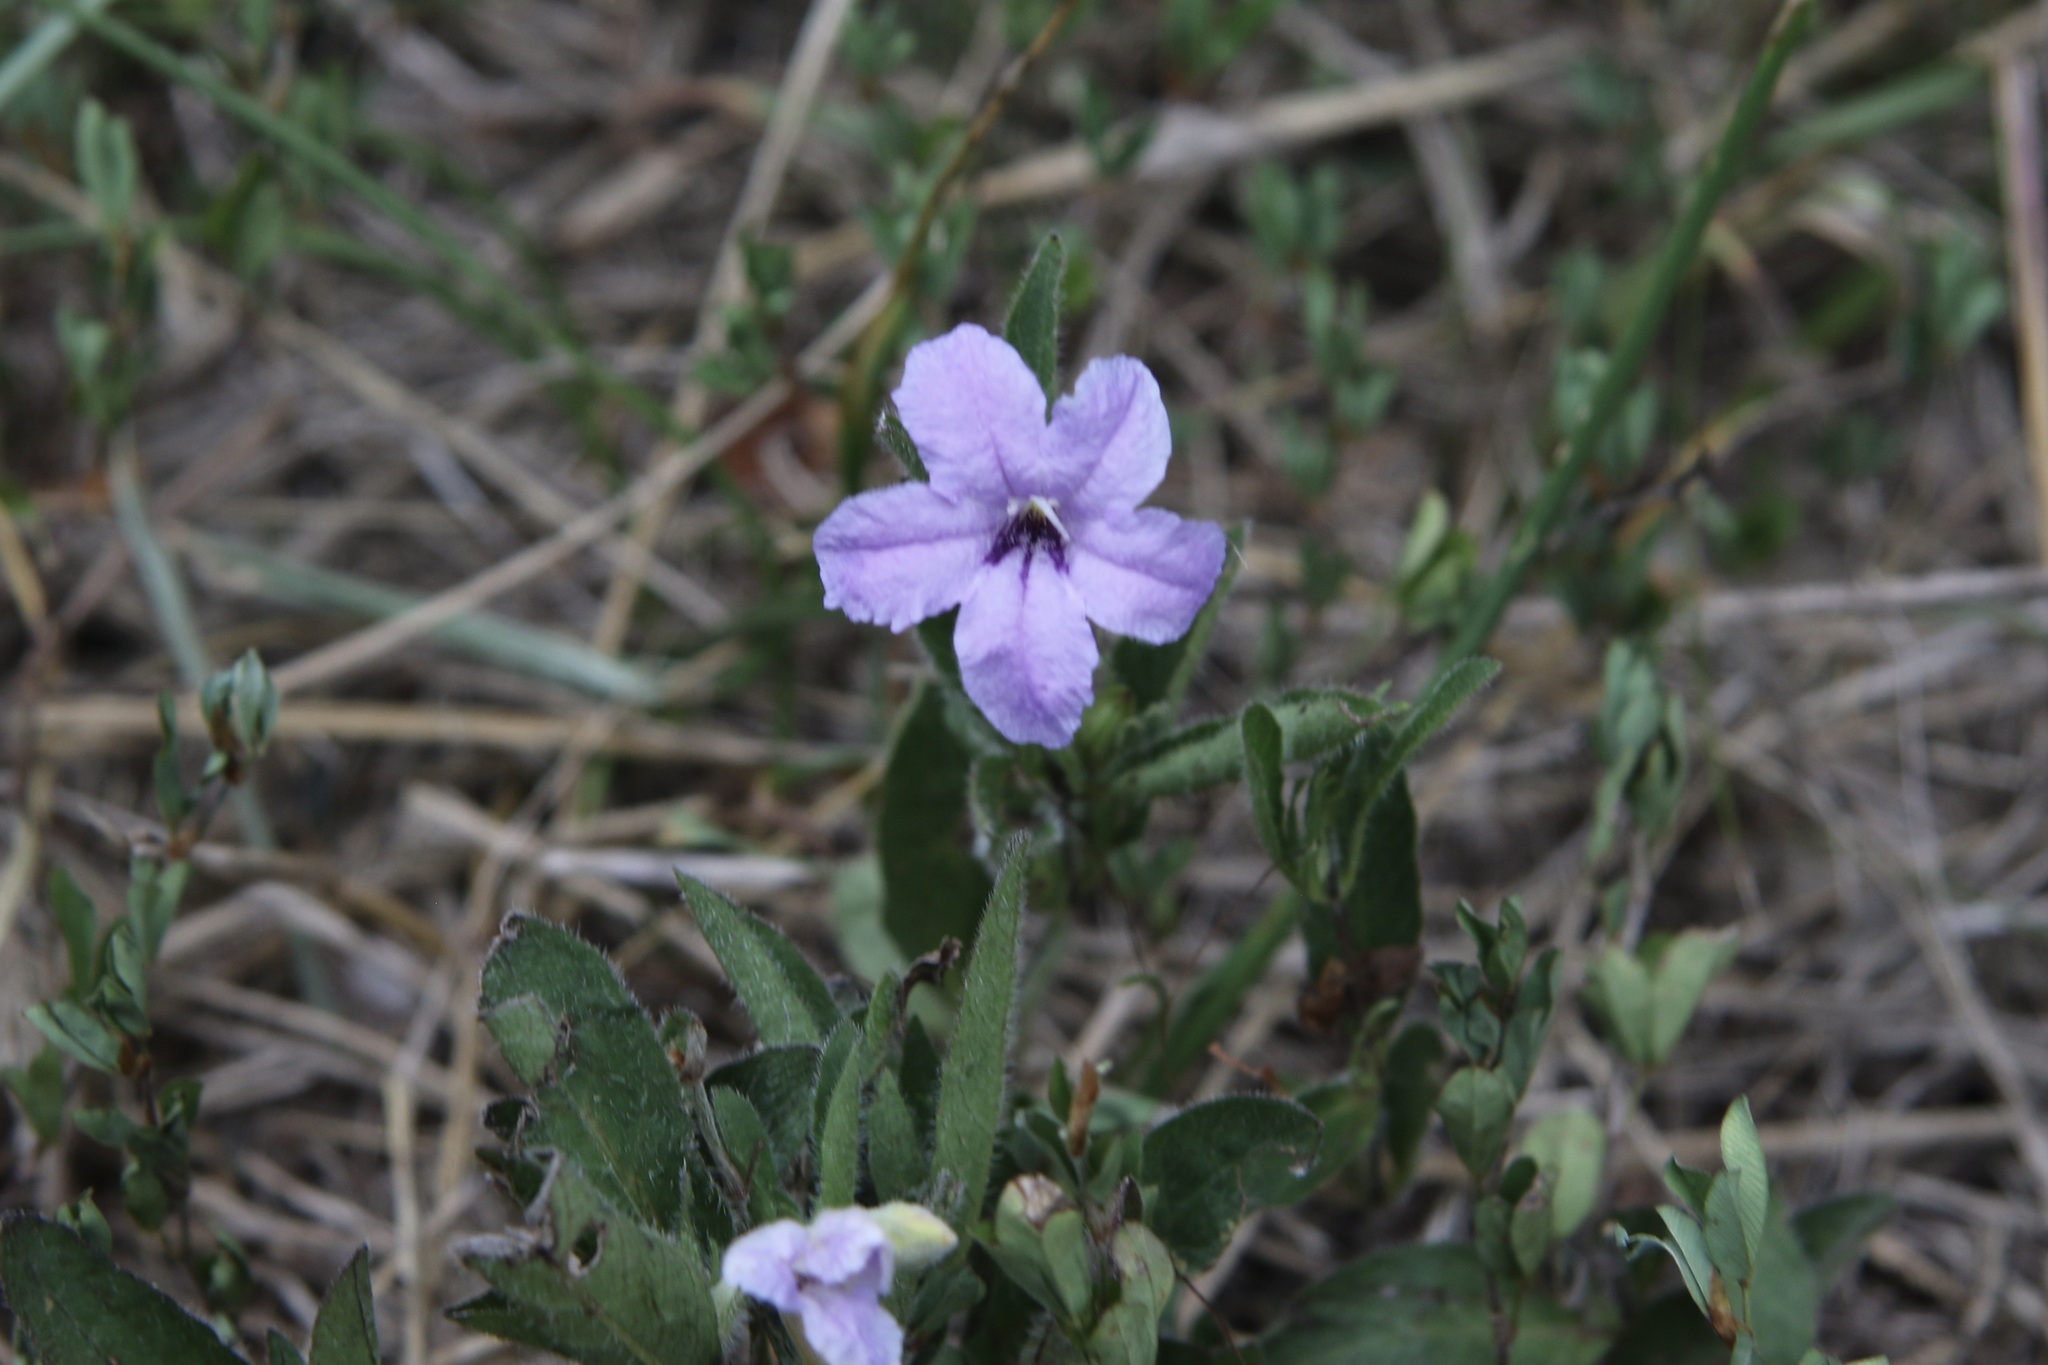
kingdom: Plantae
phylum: Tracheophyta
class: Magnoliopsida
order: Lamiales
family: Acanthaceae
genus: Ruellia
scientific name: Ruellia humilis
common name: Fringe-leaf ruellia
